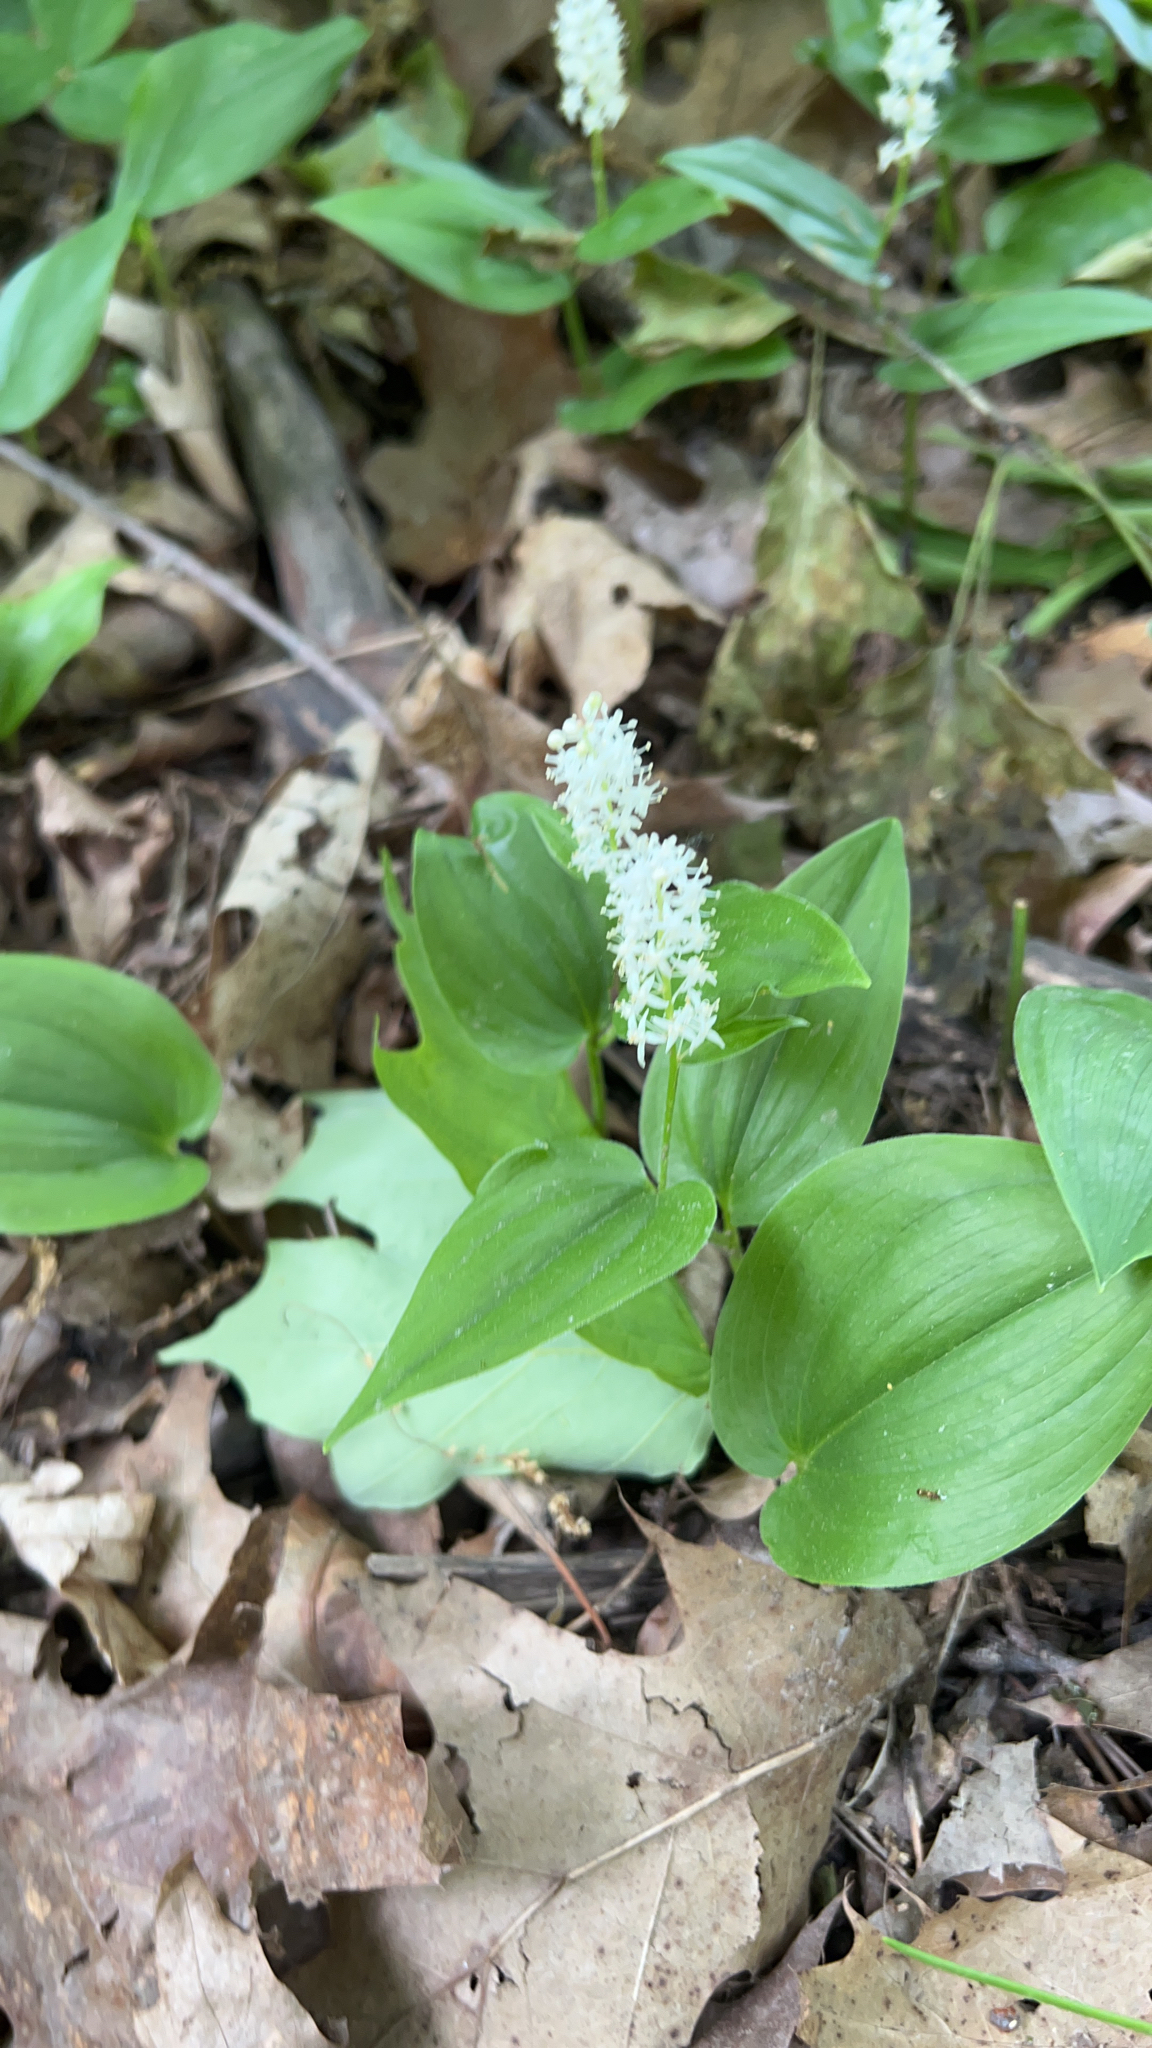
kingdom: Plantae
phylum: Tracheophyta
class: Liliopsida
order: Asparagales
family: Asparagaceae
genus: Maianthemum
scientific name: Maianthemum canadense
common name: False lily-of-the-valley
